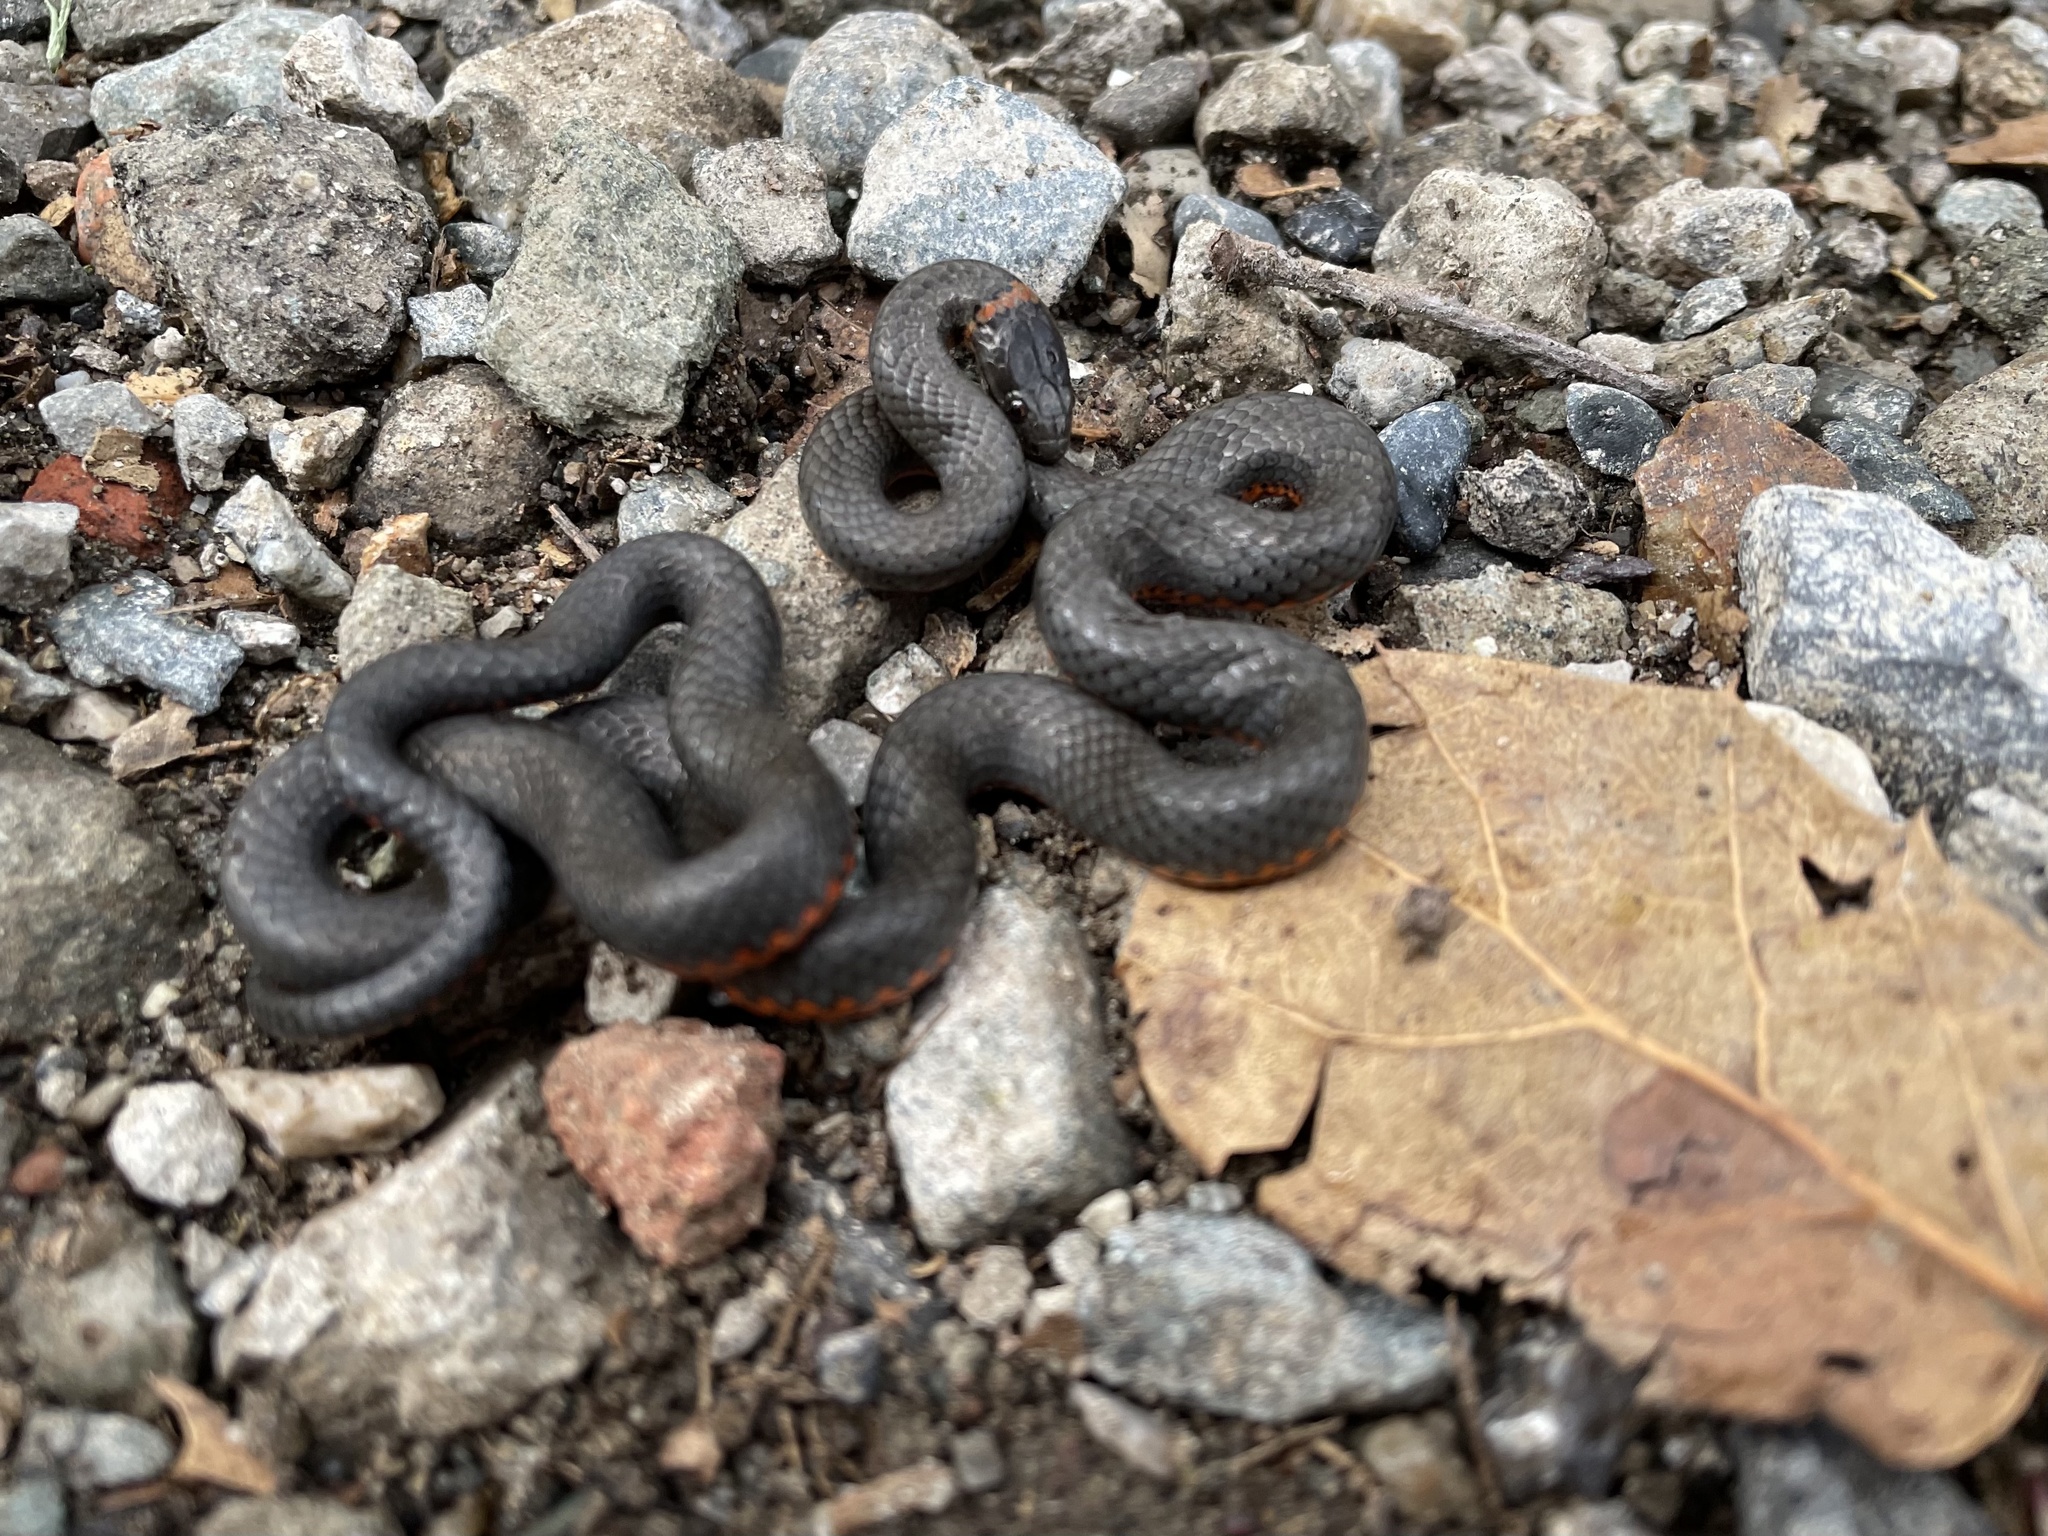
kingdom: Animalia
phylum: Chordata
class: Squamata
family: Colubridae
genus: Diadophis
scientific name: Diadophis punctatus
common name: Ringneck snake
